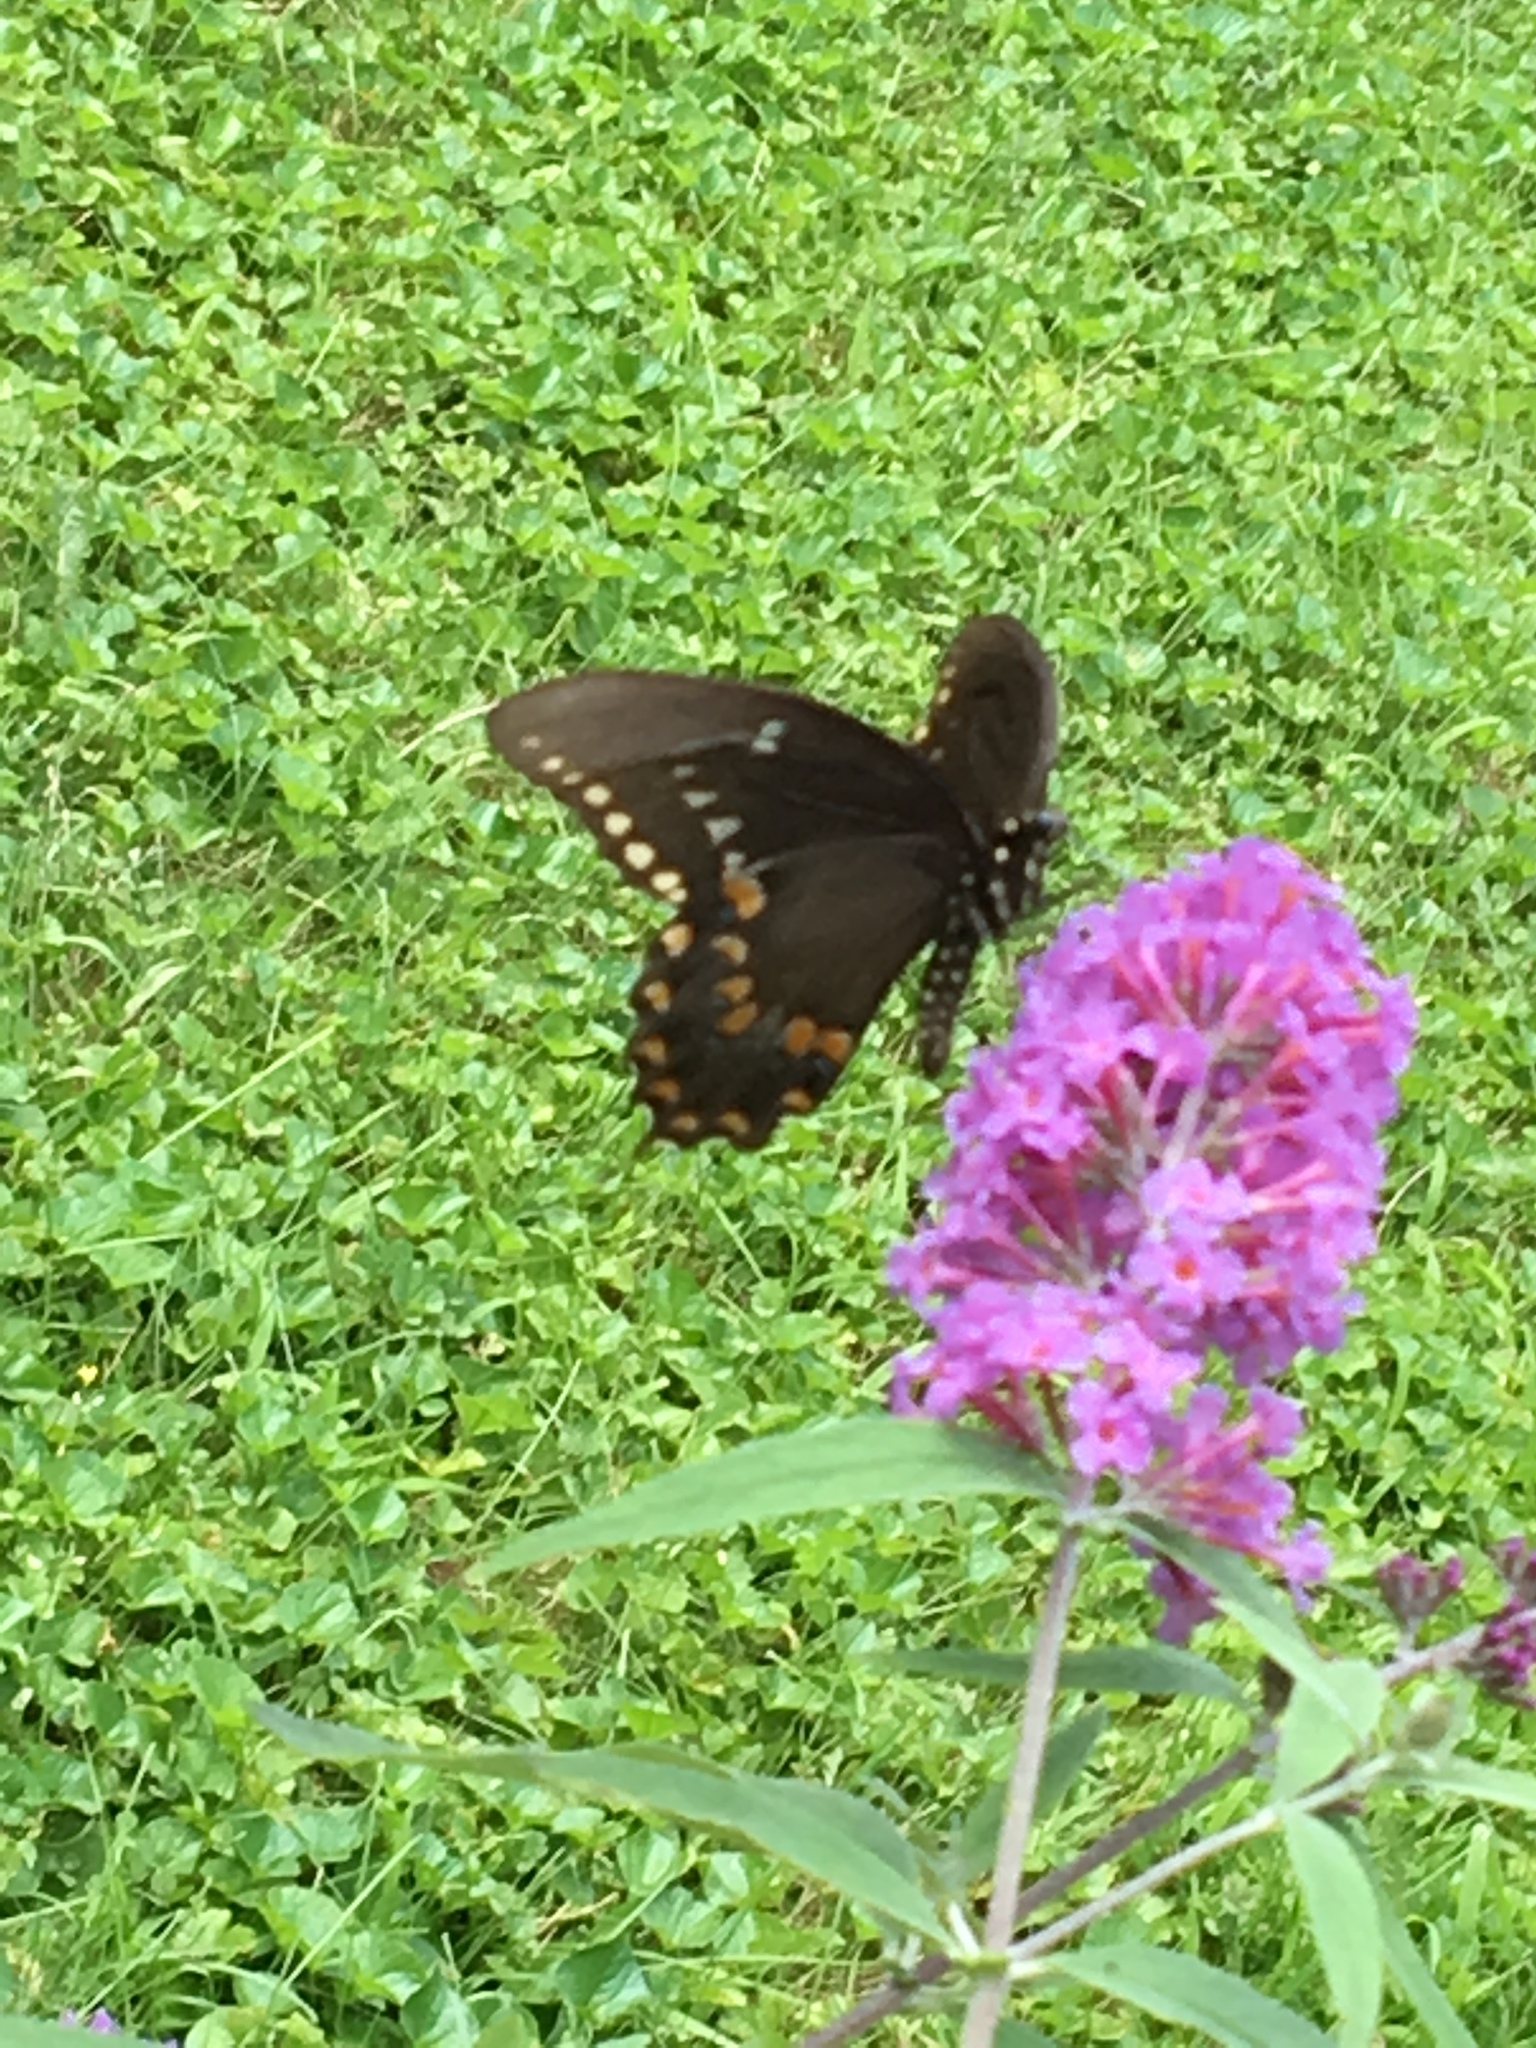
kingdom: Animalia
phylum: Arthropoda
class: Insecta
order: Lepidoptera
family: Papilionidae
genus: Papilio
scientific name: Papilio troilus
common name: Spicebush swallowtail
